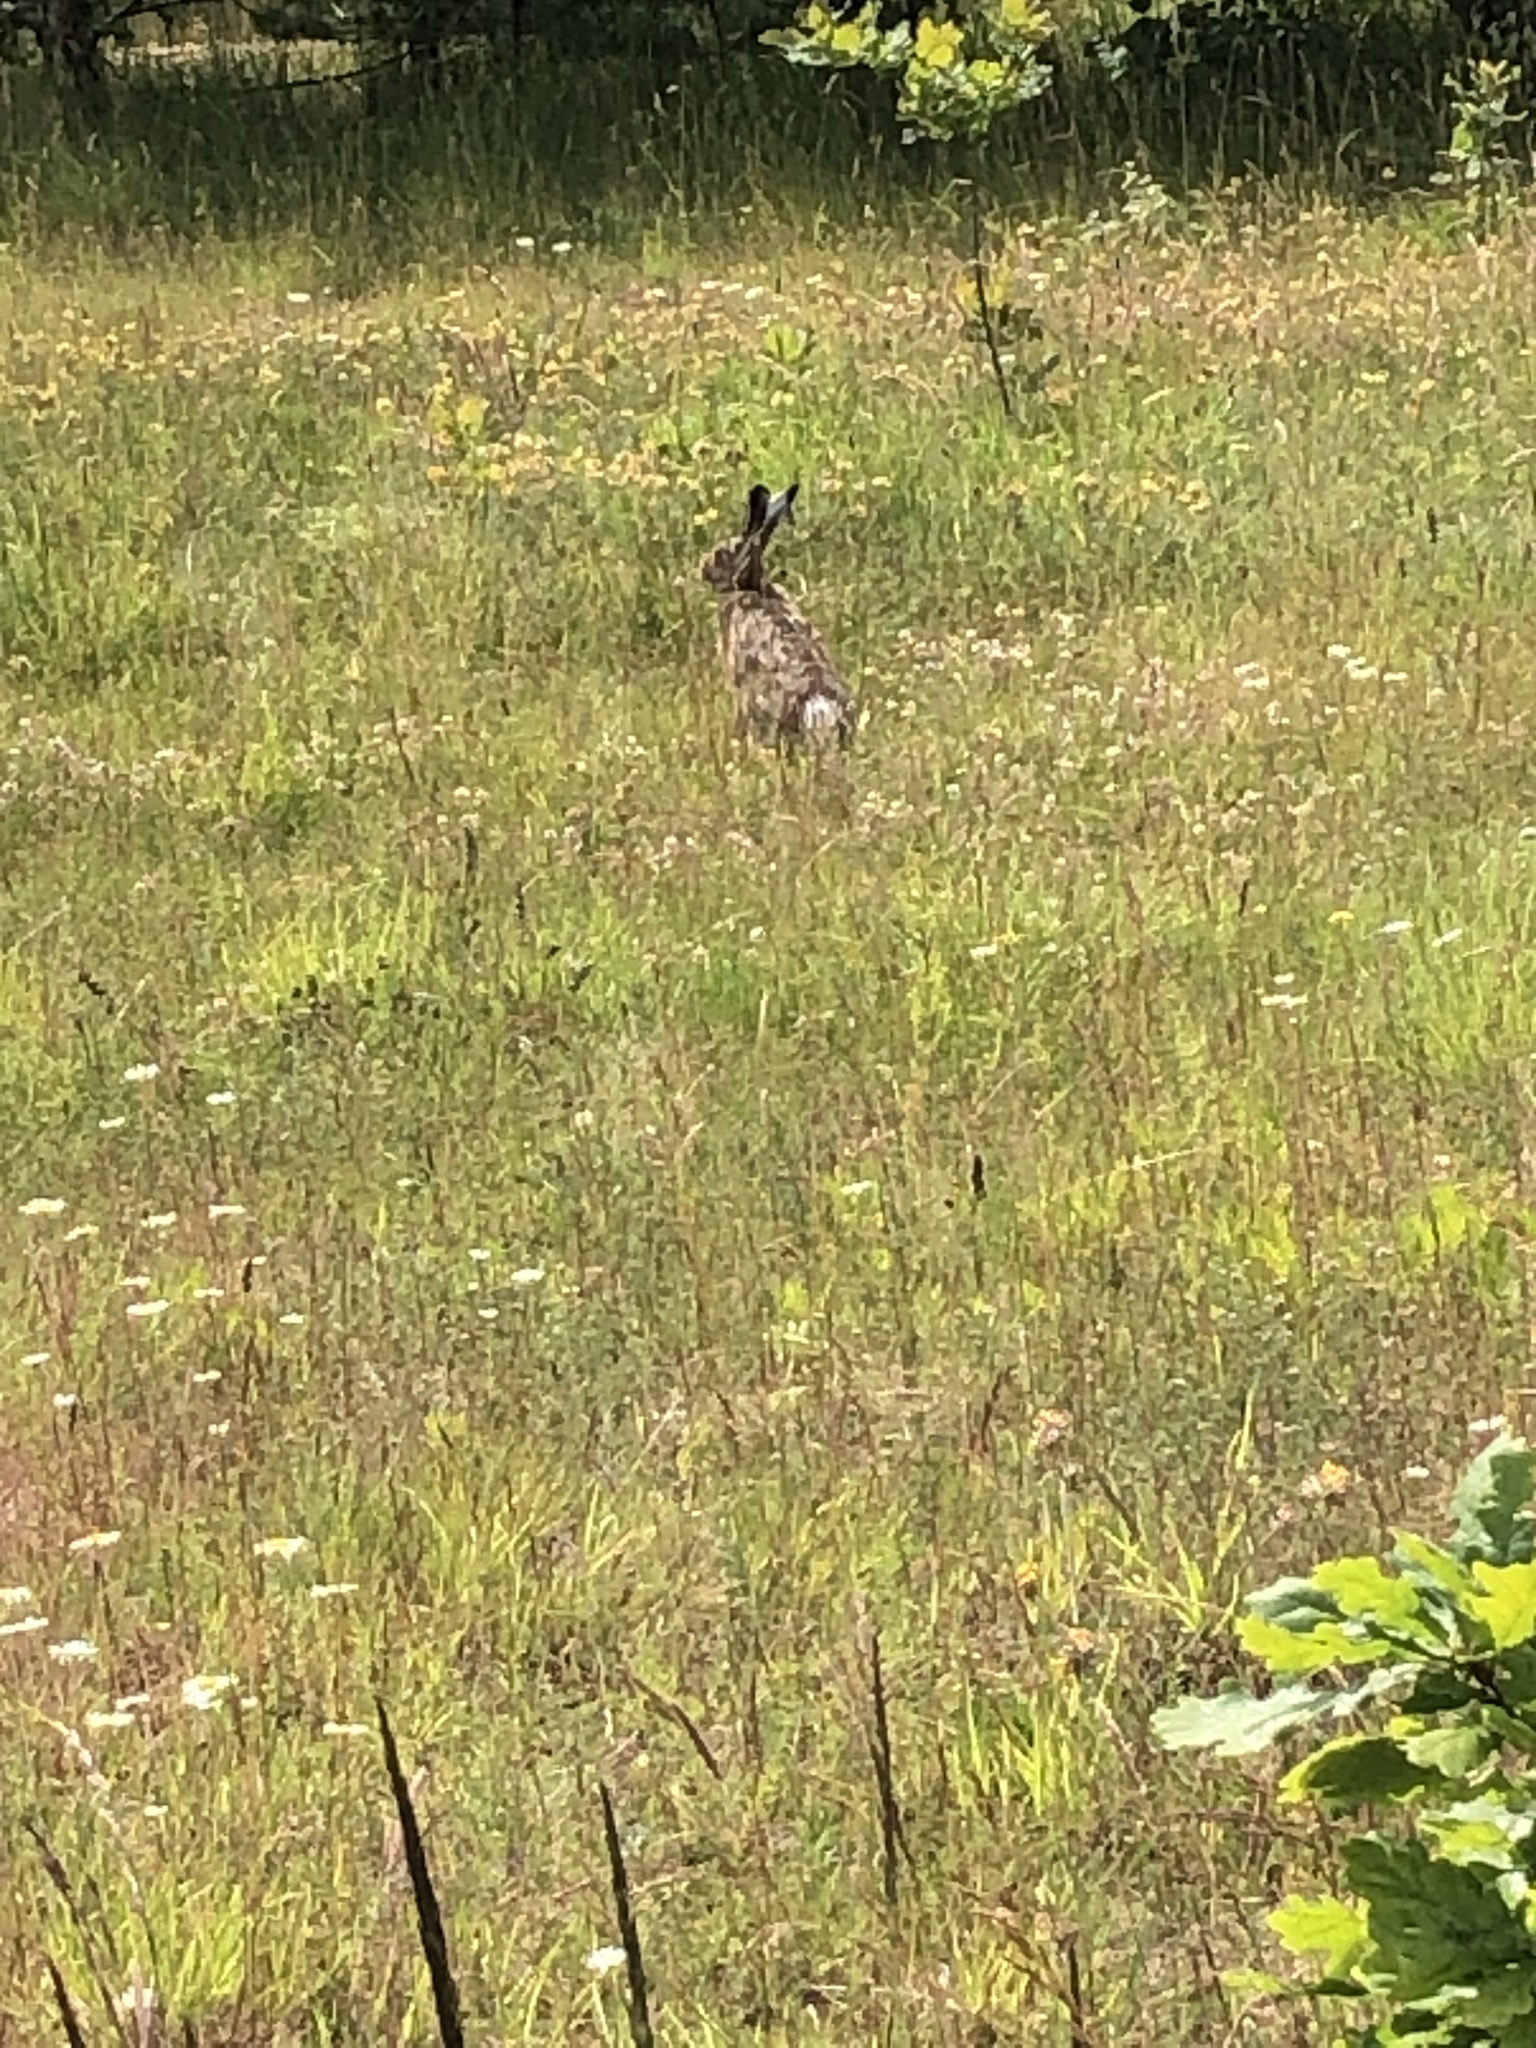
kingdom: Animalia
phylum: Chordata
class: Mammalia
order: Lagomorpha
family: Leporidae
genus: Lepus
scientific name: Lepus europaeus
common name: European hare
